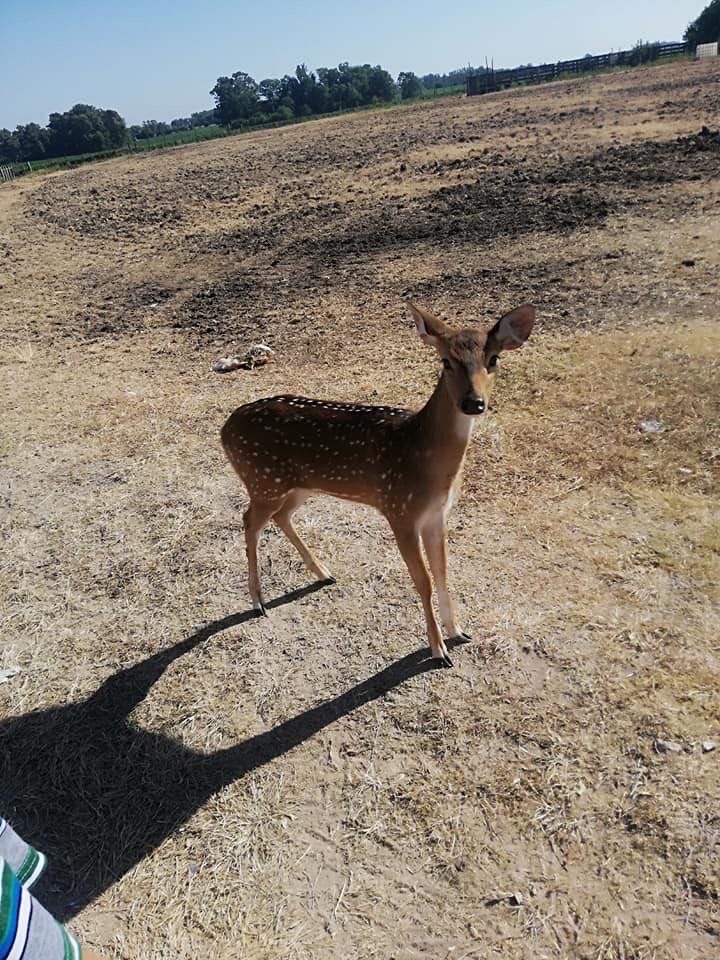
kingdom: Animalia
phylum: Chordata
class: Mammalia
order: Artiodactyla
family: Cervidae
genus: Axis
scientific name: Axis axis
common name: Chital
